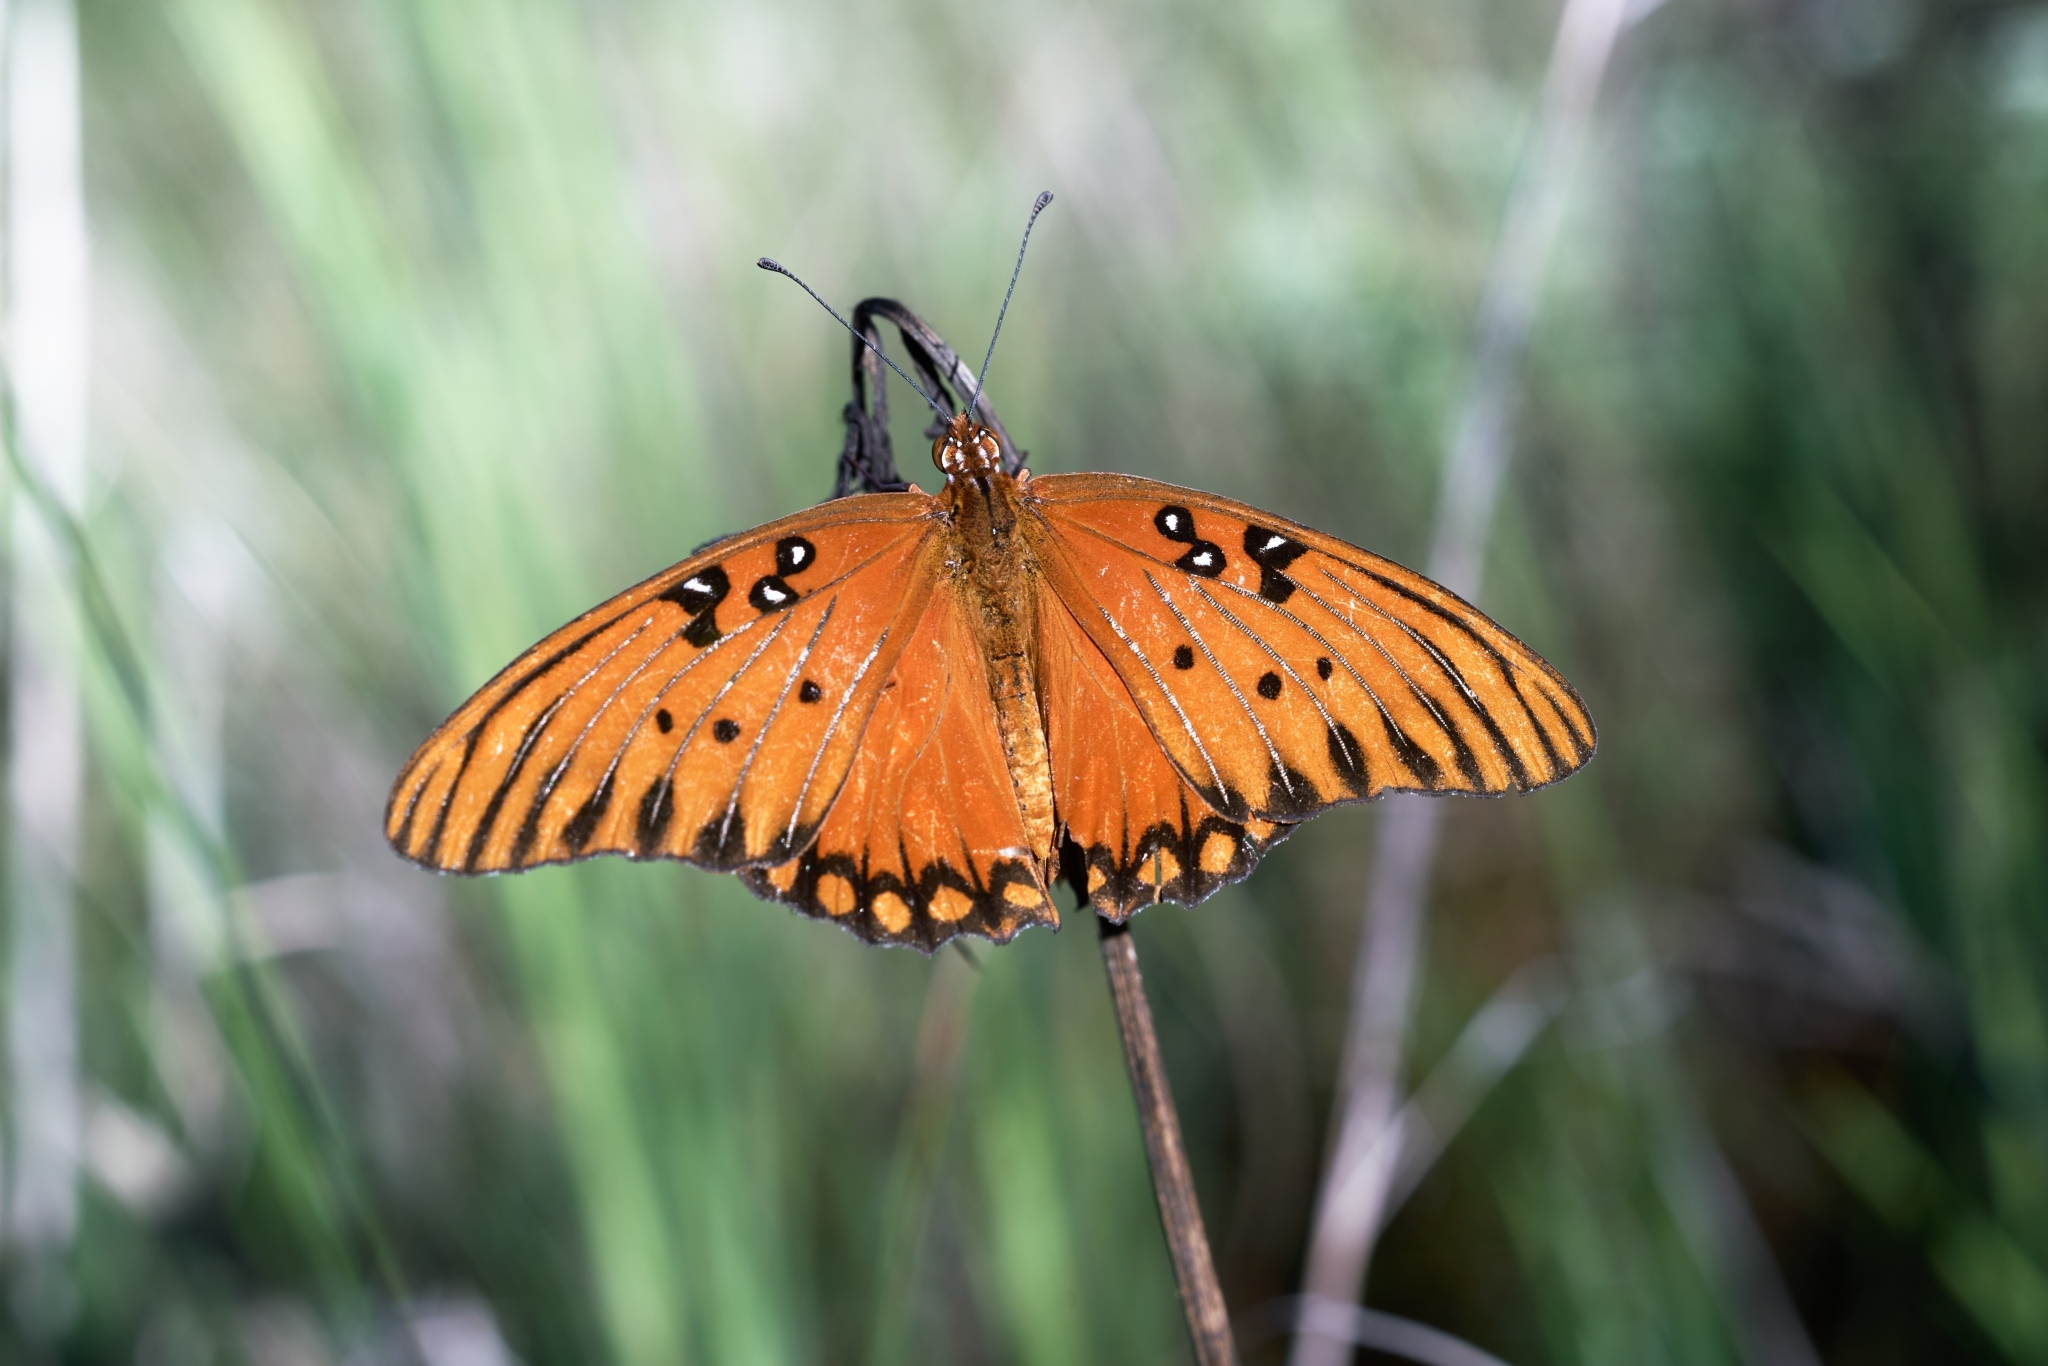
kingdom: Animalia
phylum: Arthropoda
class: Insecta
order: Lepidoptera
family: Nymphalidae
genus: Dione
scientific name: Dione vanillae
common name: Gulf fritillary
